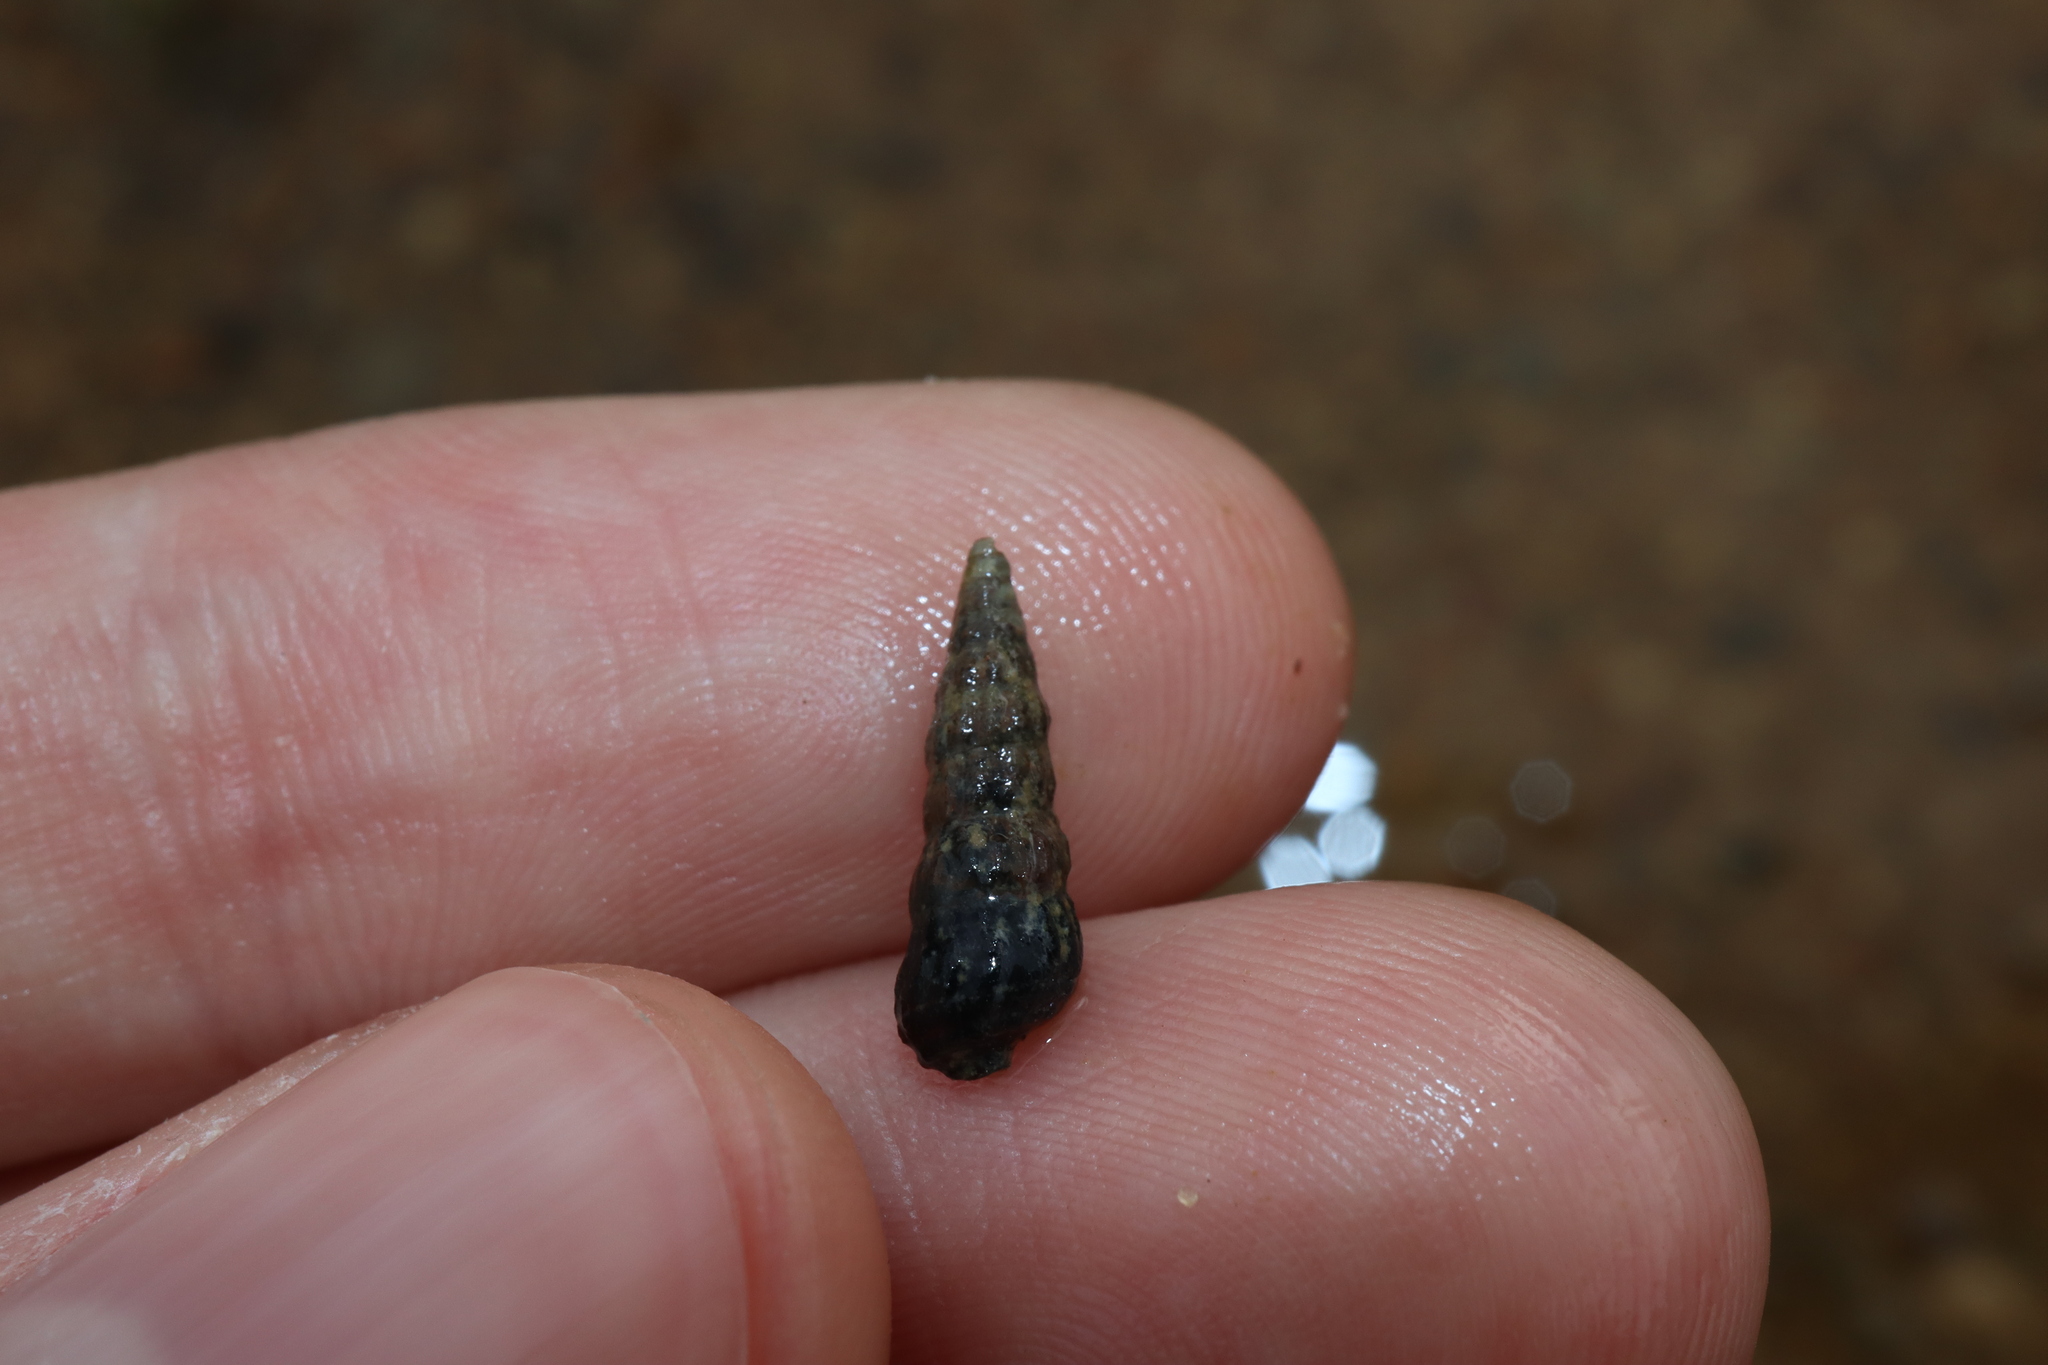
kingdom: Animalia
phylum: Mollusca
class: Gastropoda
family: Batillariidae
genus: Zeacumantus
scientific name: Zeacumantus subcarinatus
